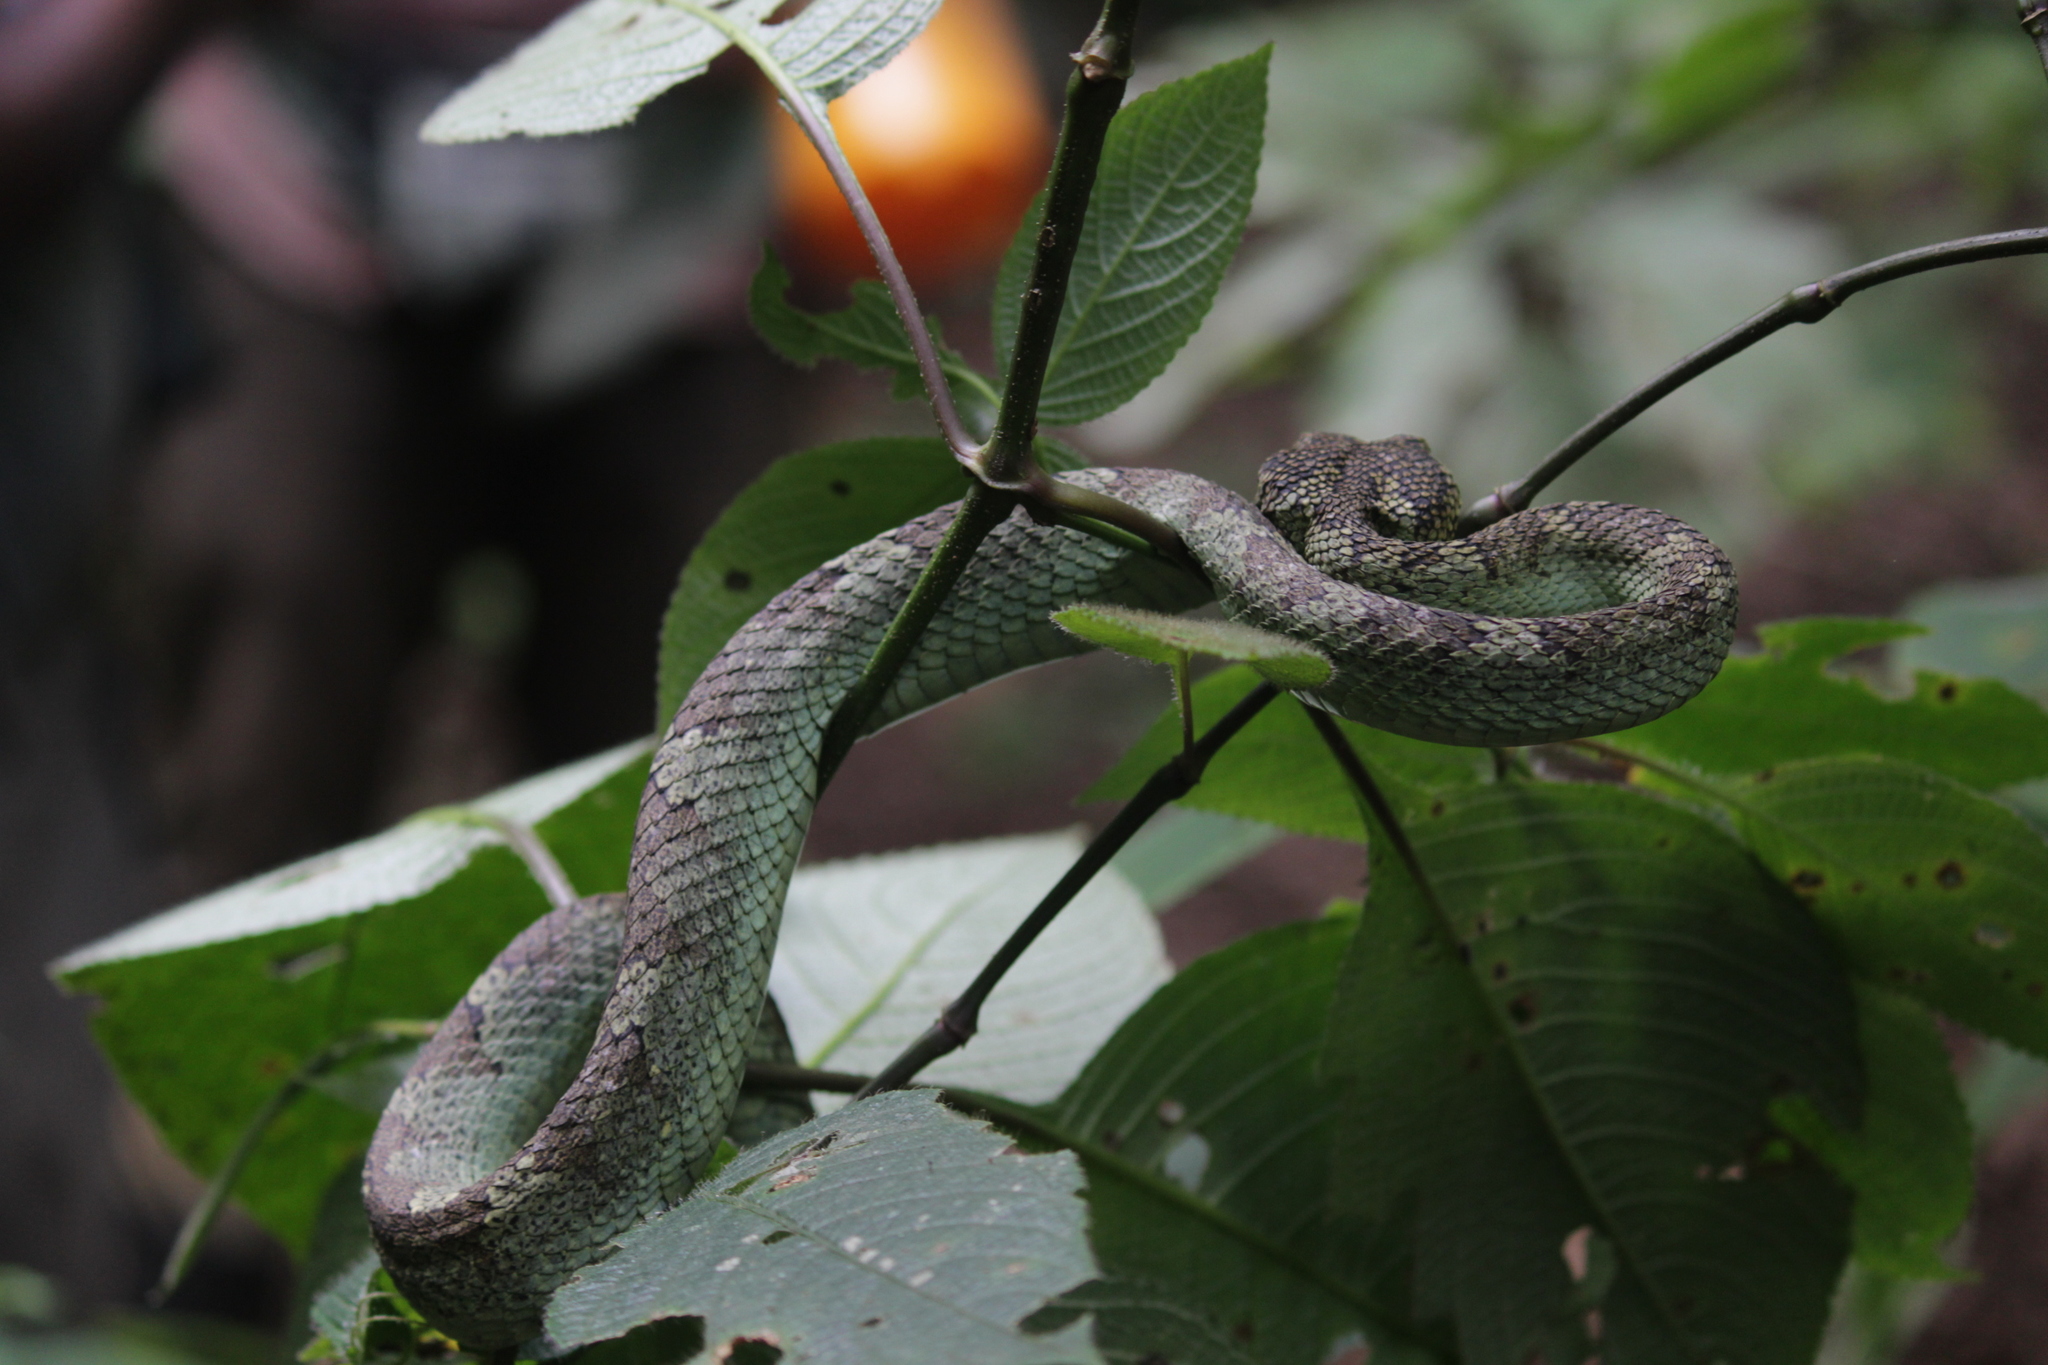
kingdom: Animalia
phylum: Chordata
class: Squamata
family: Viperidae
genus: Craspedocephalus
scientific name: Craspedocephalus malabaricus
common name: Malabarian pit viper
